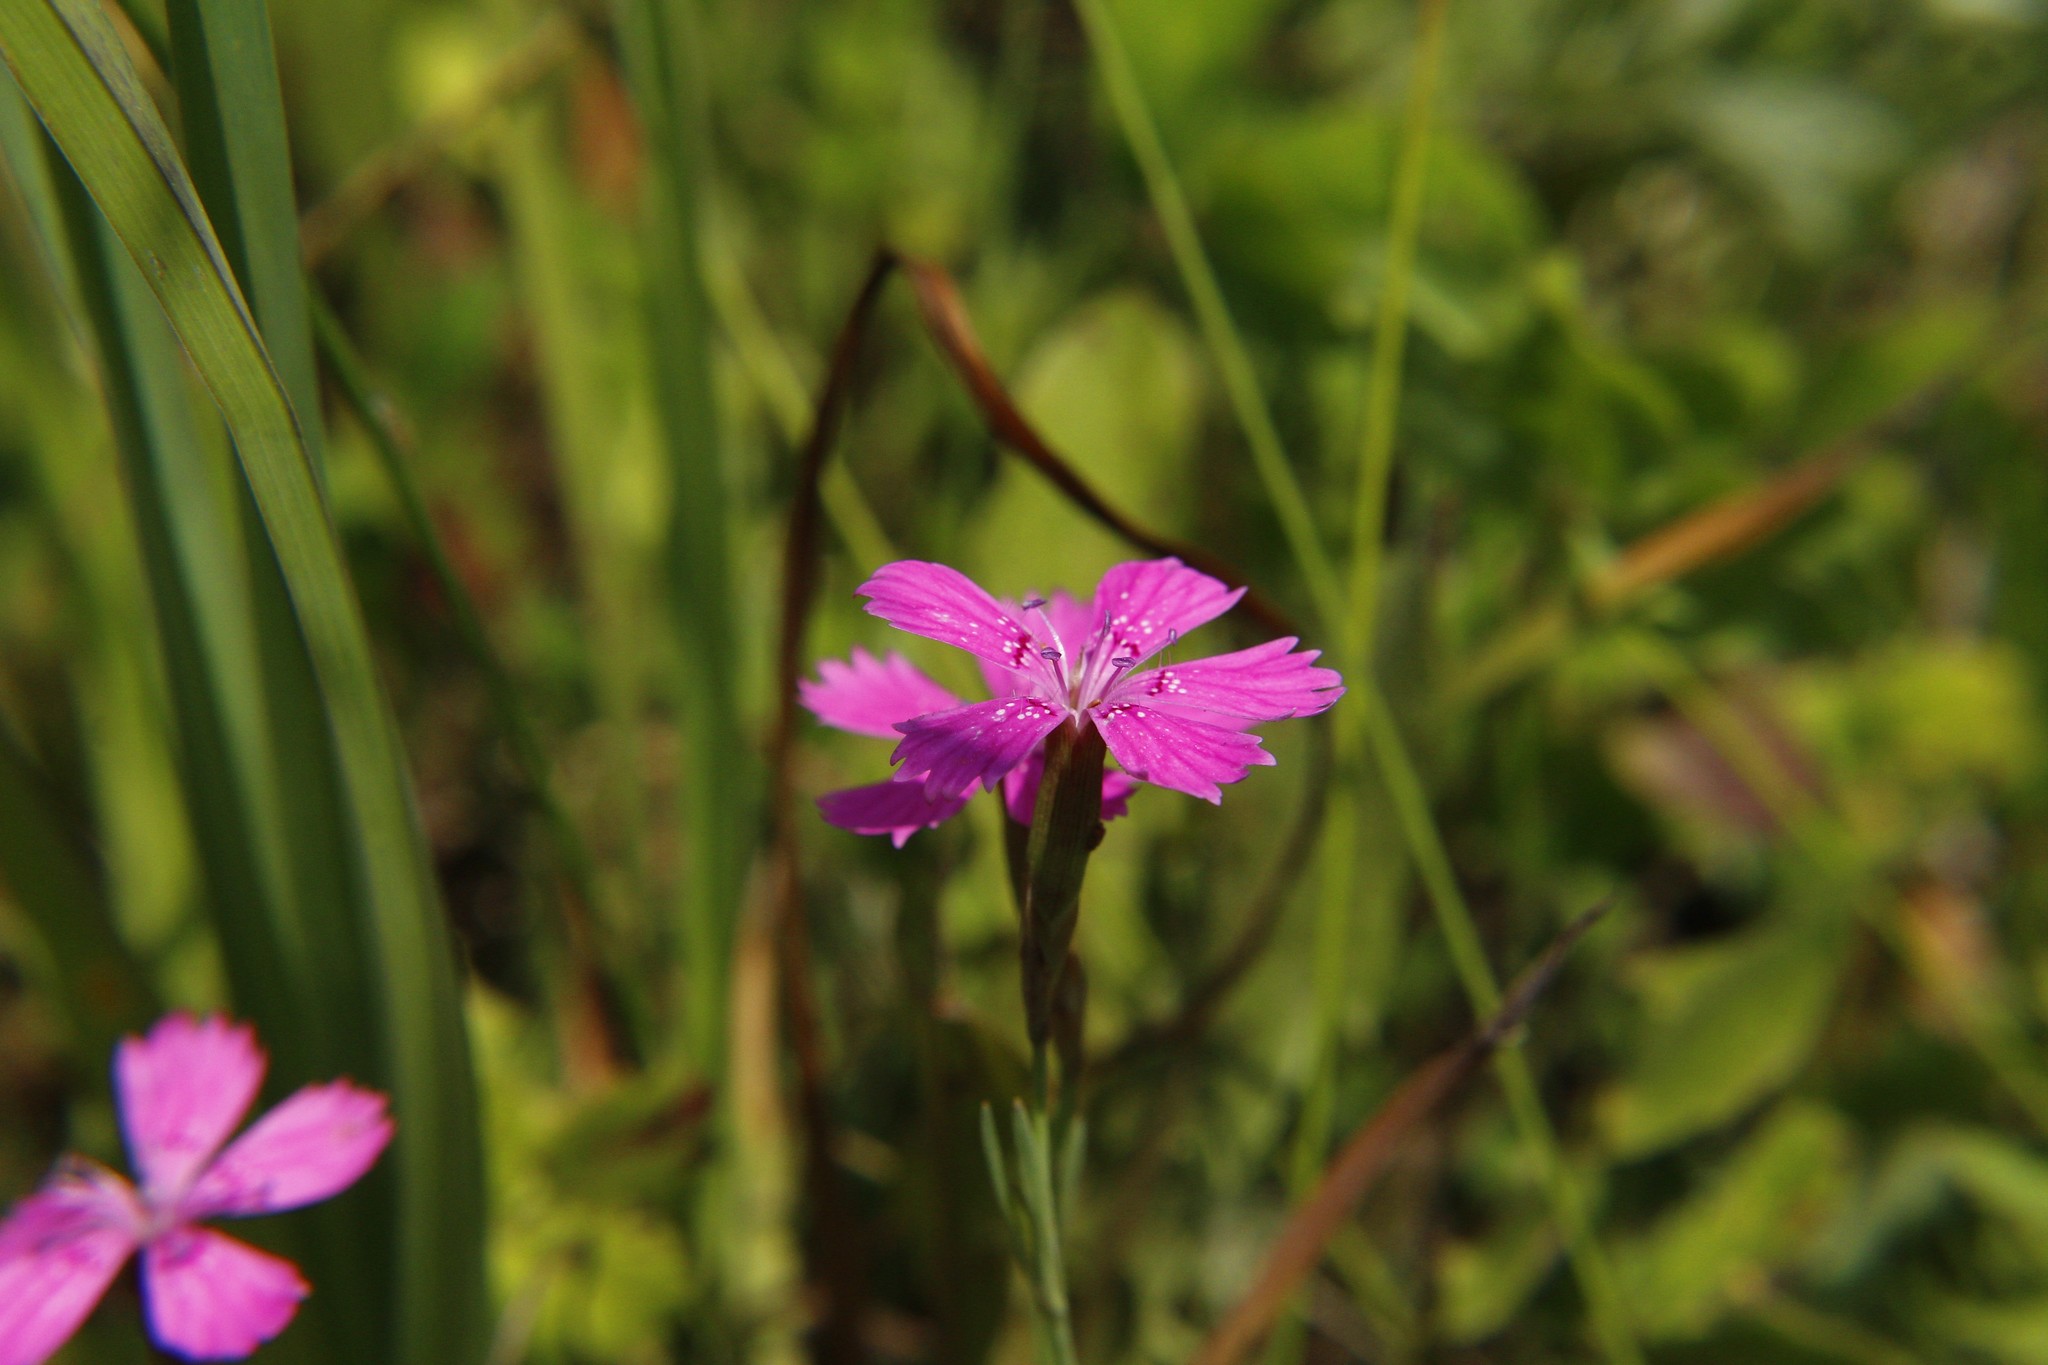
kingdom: Plantae
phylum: Tracheophyta
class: Magnoliopsida
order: Caryophyllales
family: Caryophyllaceae
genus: Dianthus
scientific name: Dianthus deltoides
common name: Maiden pink
